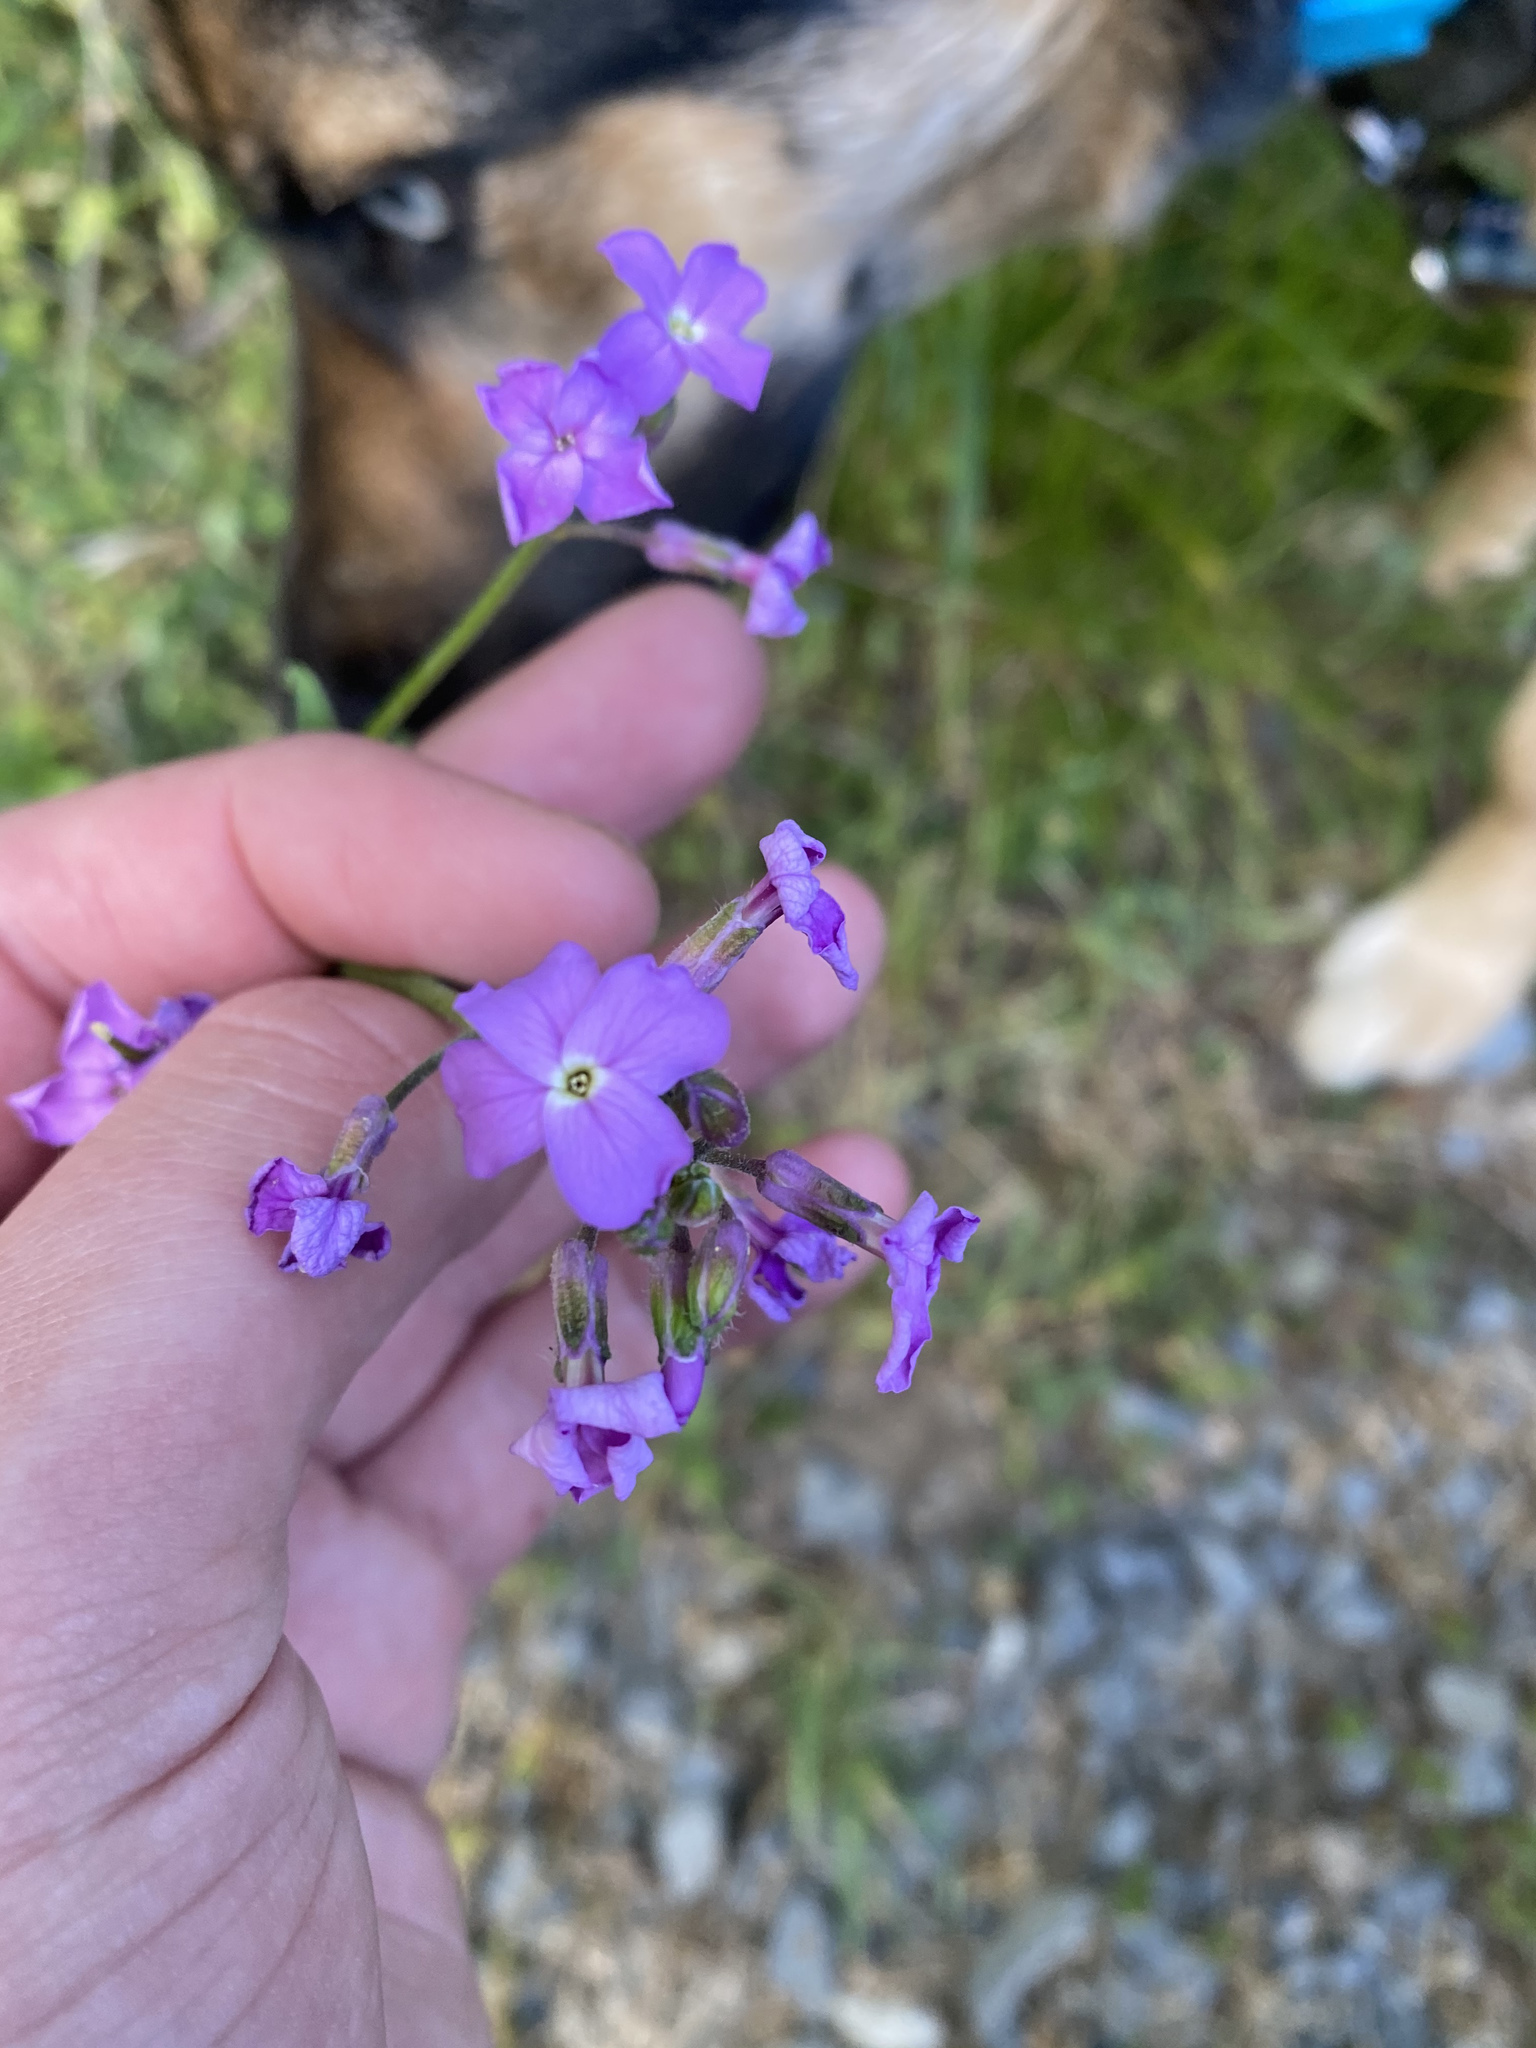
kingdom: Plantae
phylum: Tracheophyta
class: Magnoliopsida
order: Brassicales
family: Brassicaceae
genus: Hesperis
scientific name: Hesperis matronalis
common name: Dame's-violet
